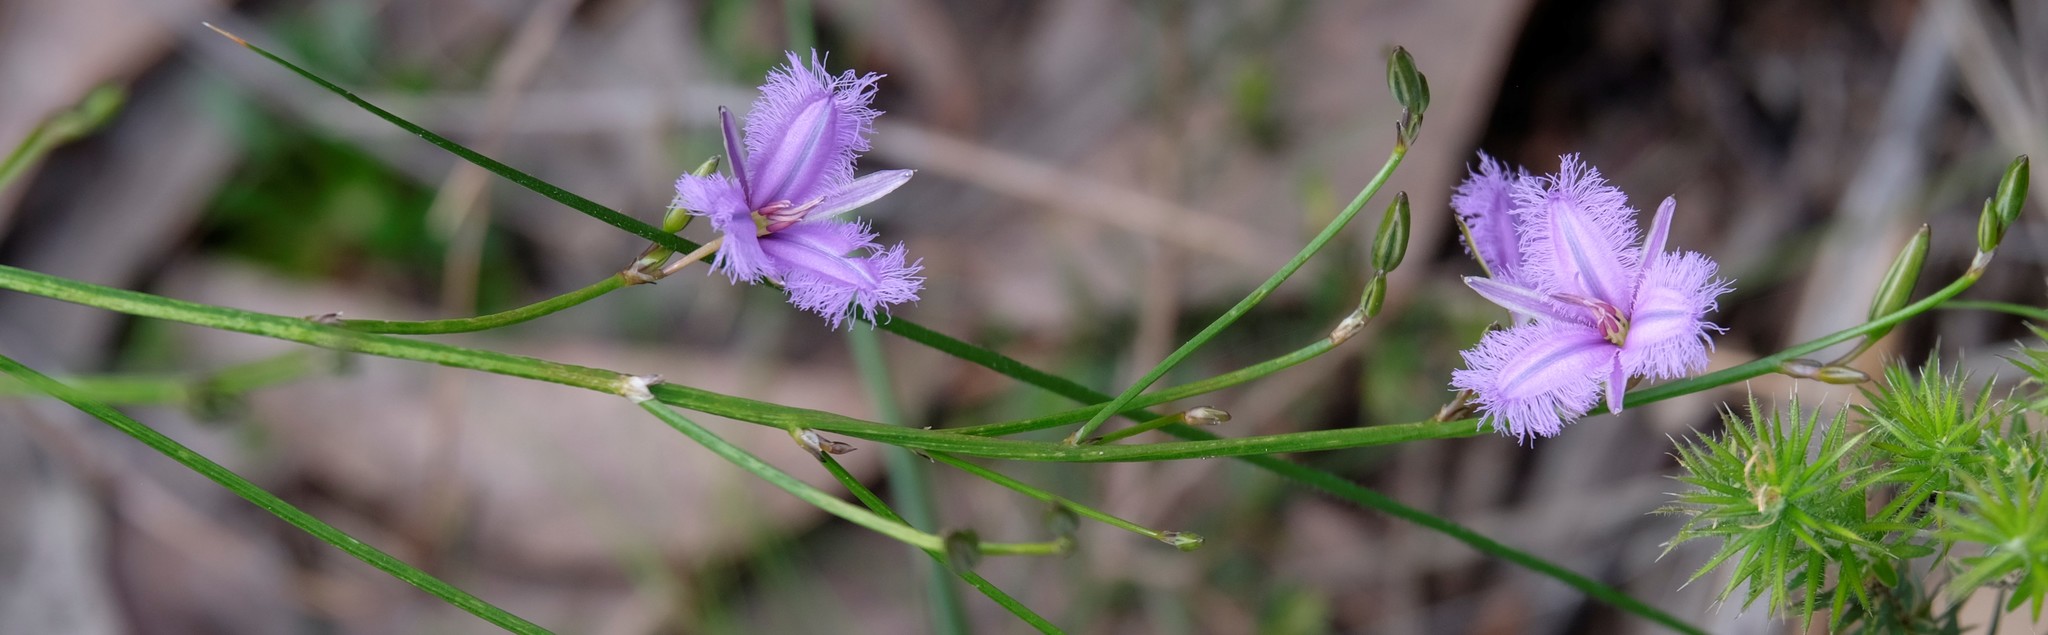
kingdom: Plantae
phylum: Tracheophyta
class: Liliopsida
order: Asparagales
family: Asparagaceae
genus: Thysanotus
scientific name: Thysanotus tuberosus
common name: Common fringed-lily
